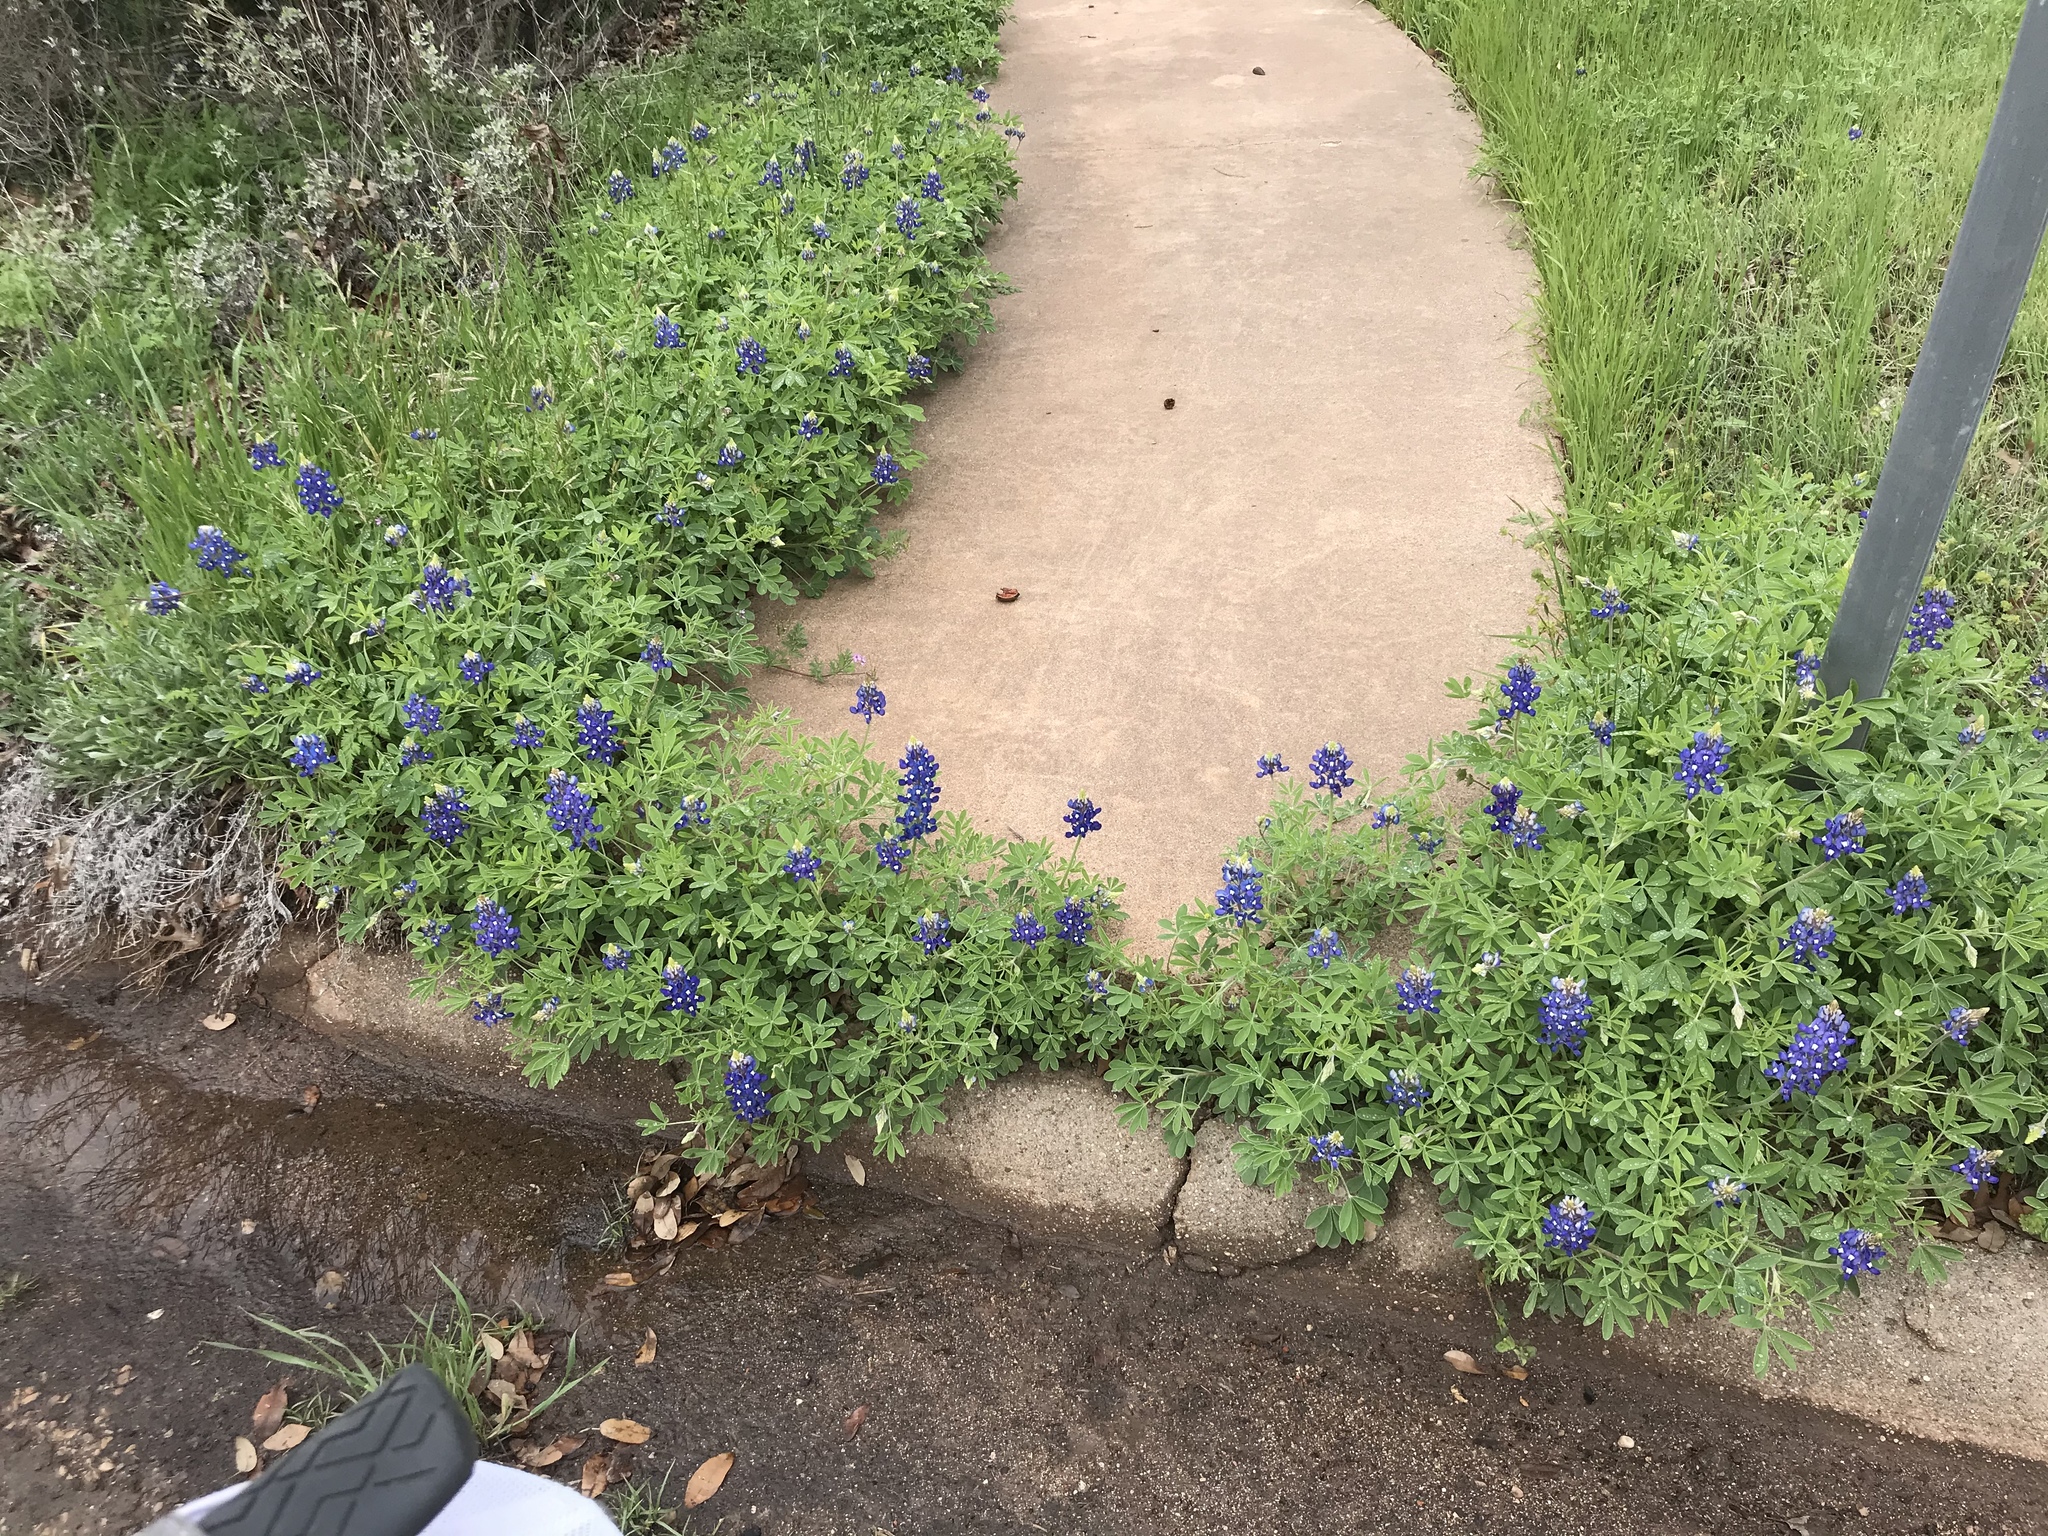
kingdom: Plantae
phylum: Tracheophyta
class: Magnoliopsida
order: Fabales
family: Fabaceae
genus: Lupinus
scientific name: Lupinus texensis
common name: Texas bluebonnet
